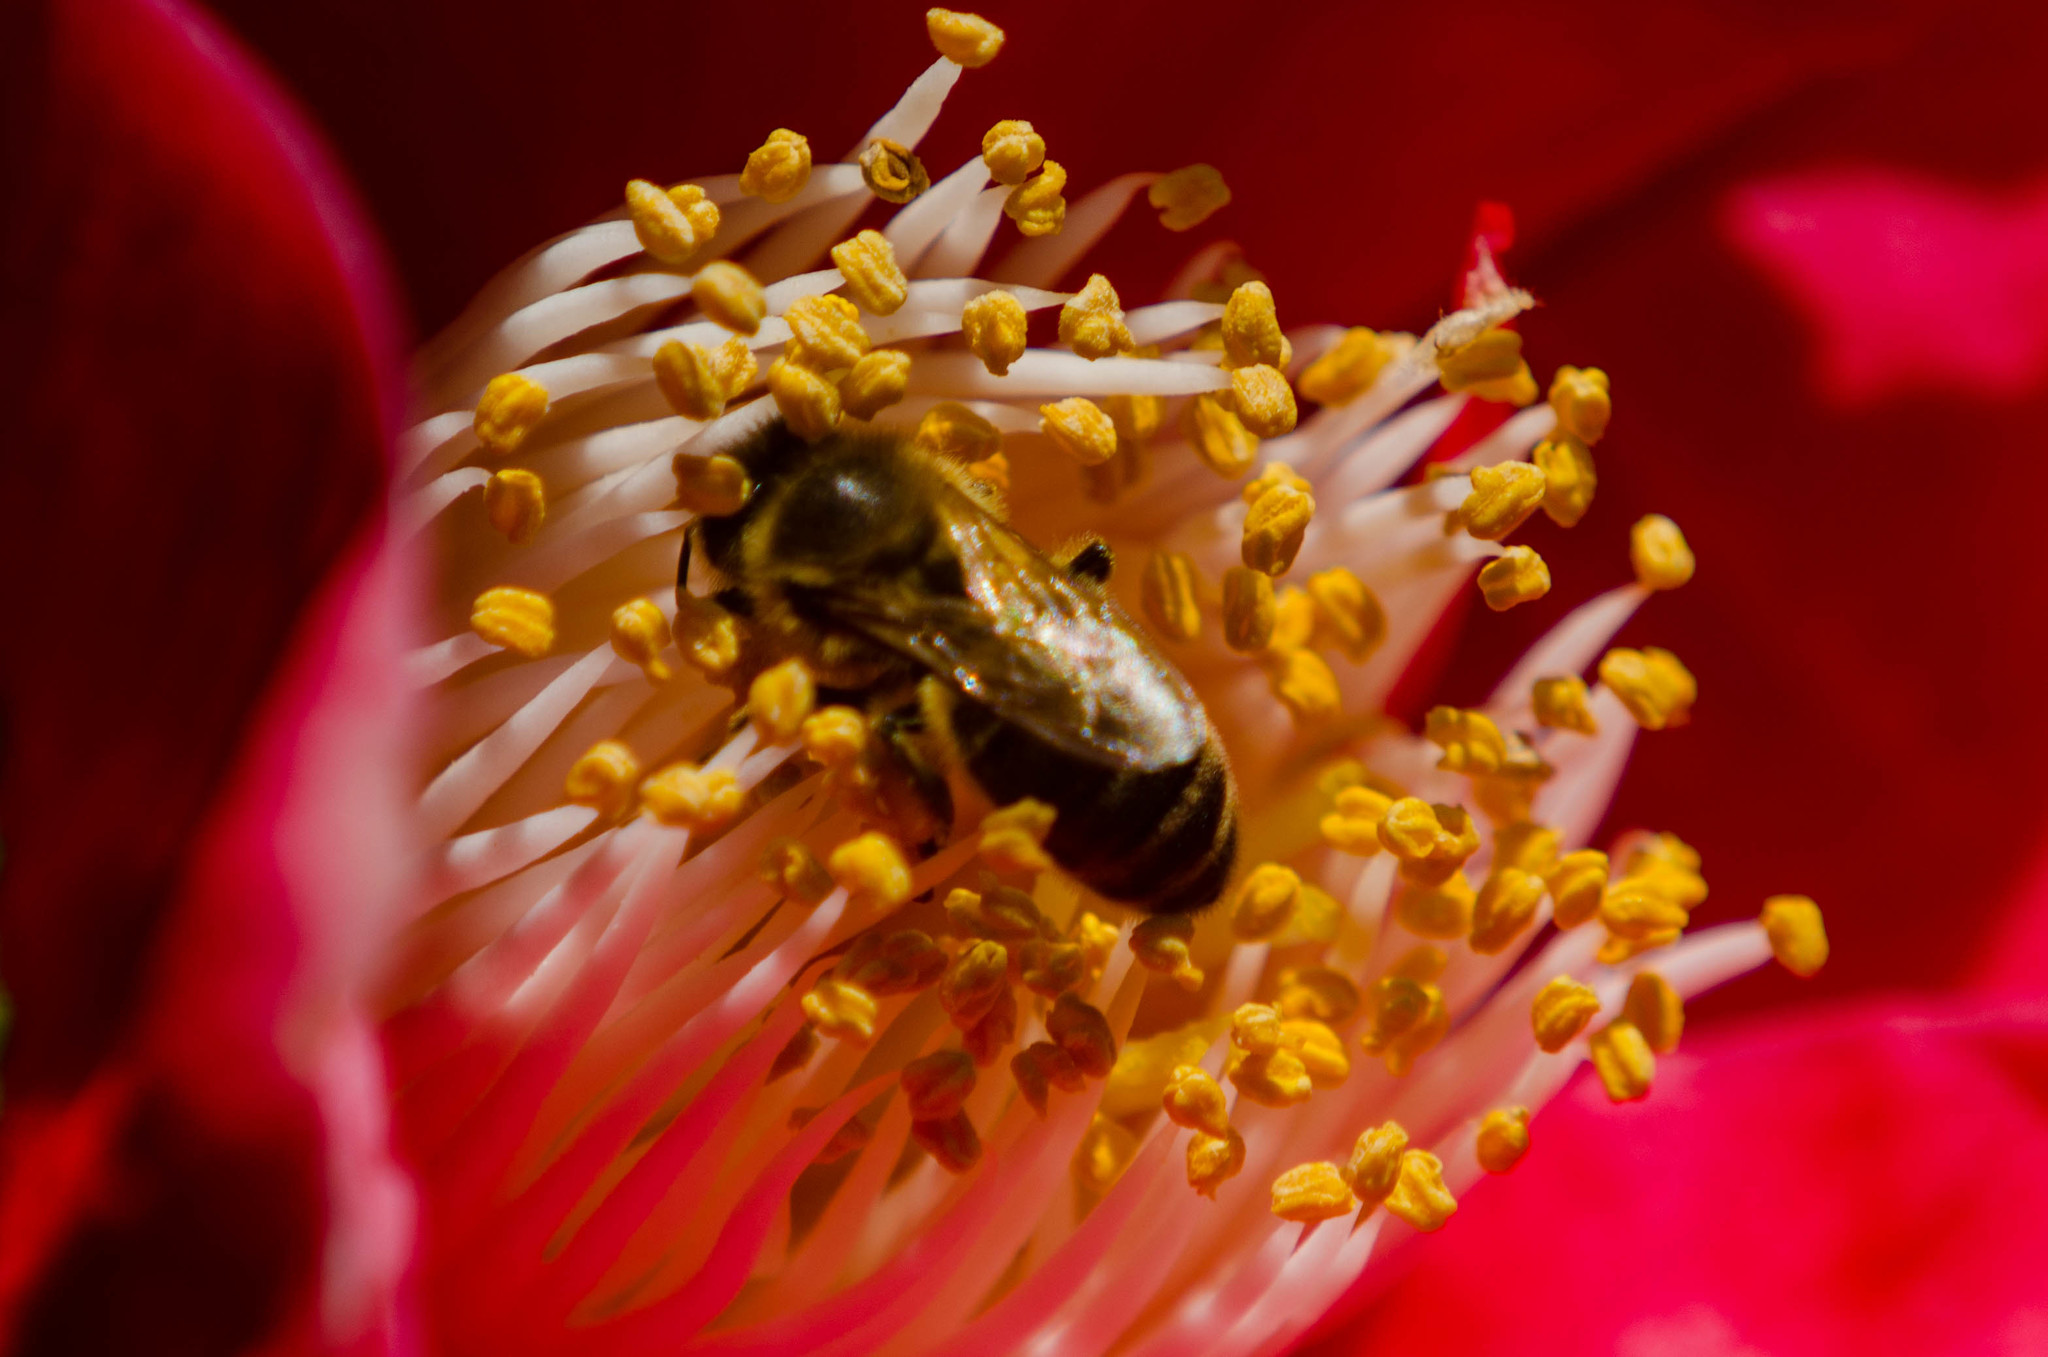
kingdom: Animalia
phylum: Arthropoda
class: Insecta
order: Hymenoptera
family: Apidae
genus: Apis
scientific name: Apis mellifera
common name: Honey bee
